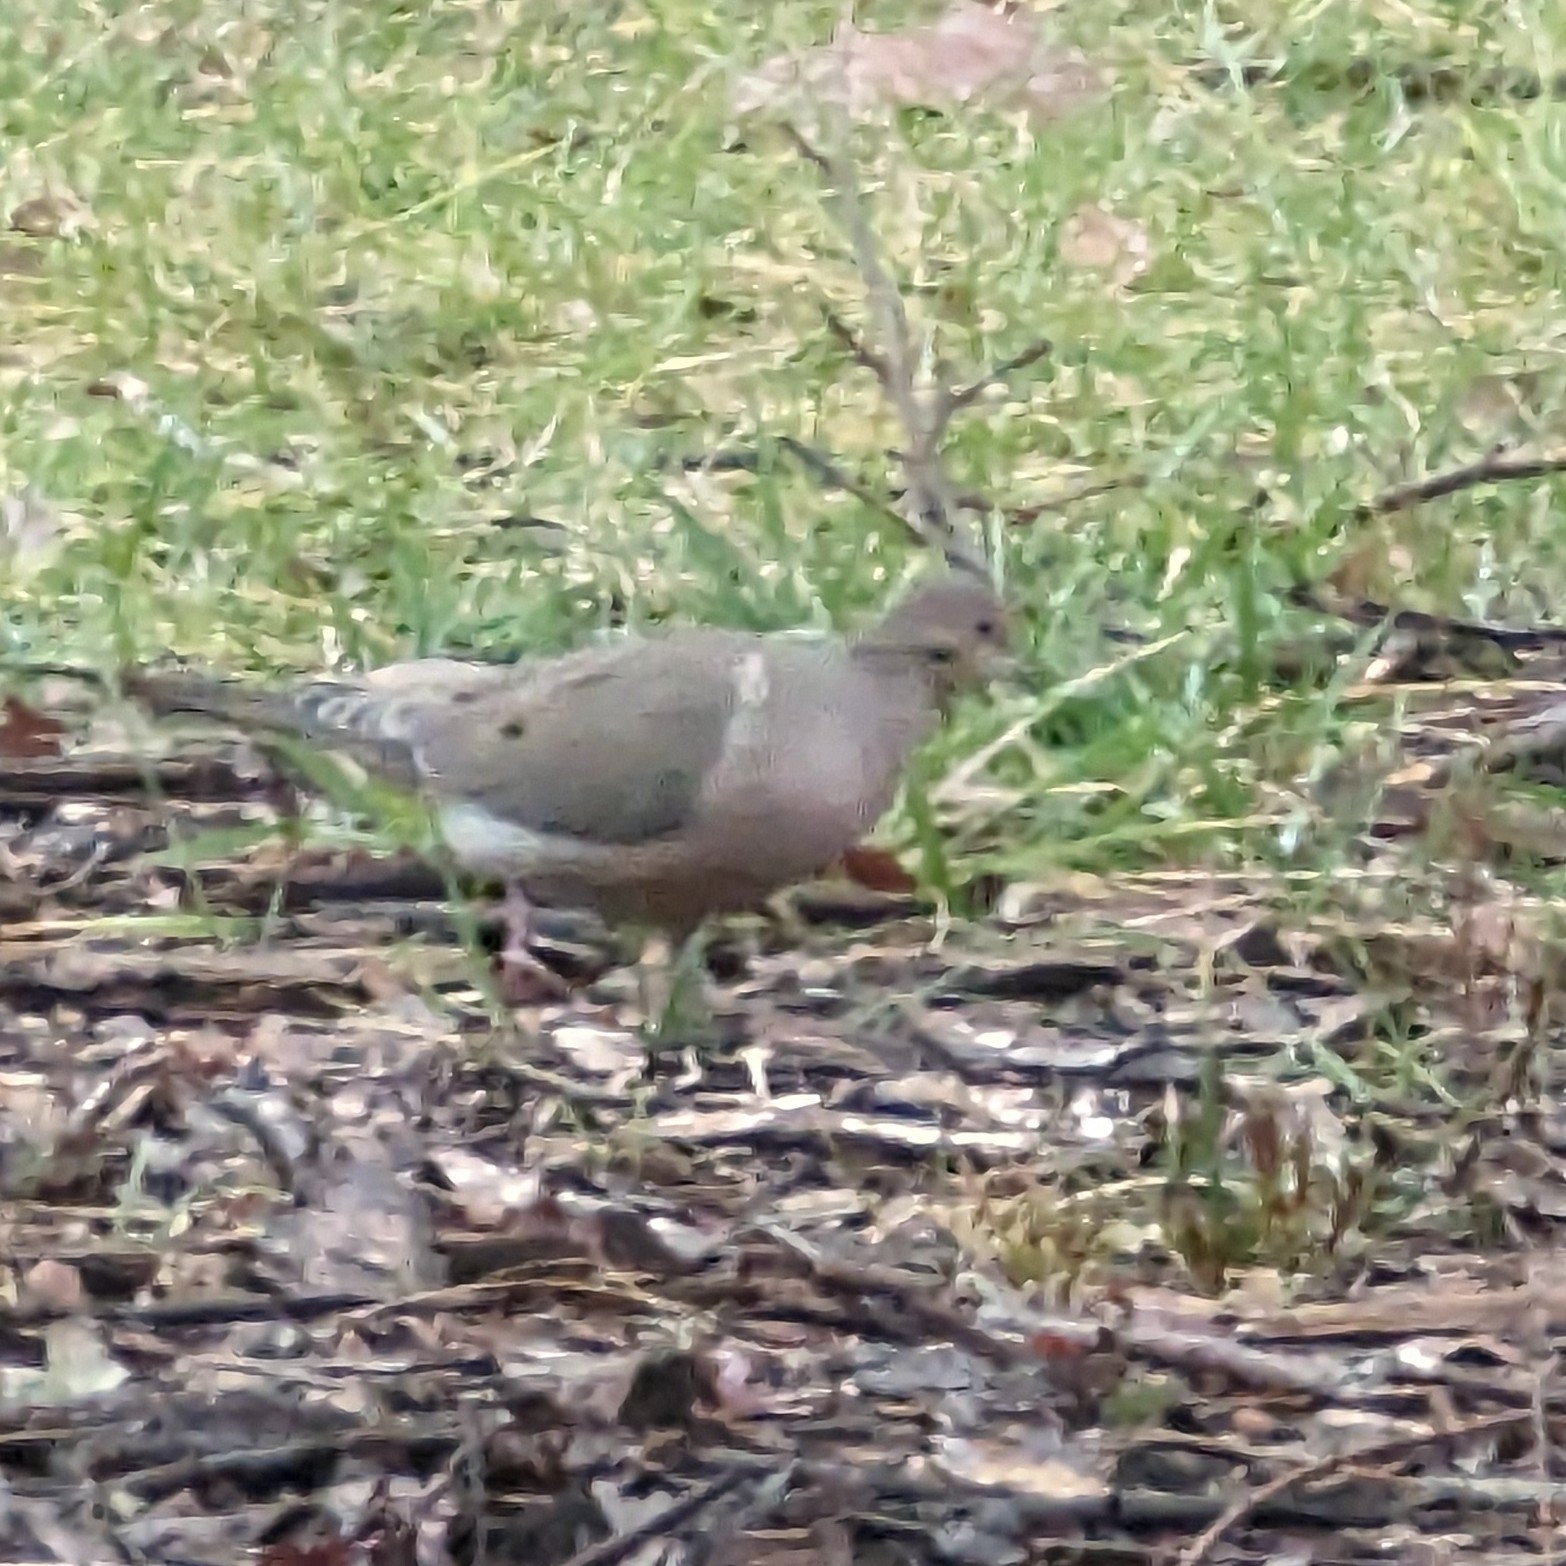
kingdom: Animalia
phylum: Chordata
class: Aves
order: Columbiformes
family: Columbidae
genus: Zenaida
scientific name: Zenaida macroura
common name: Mourning dove
